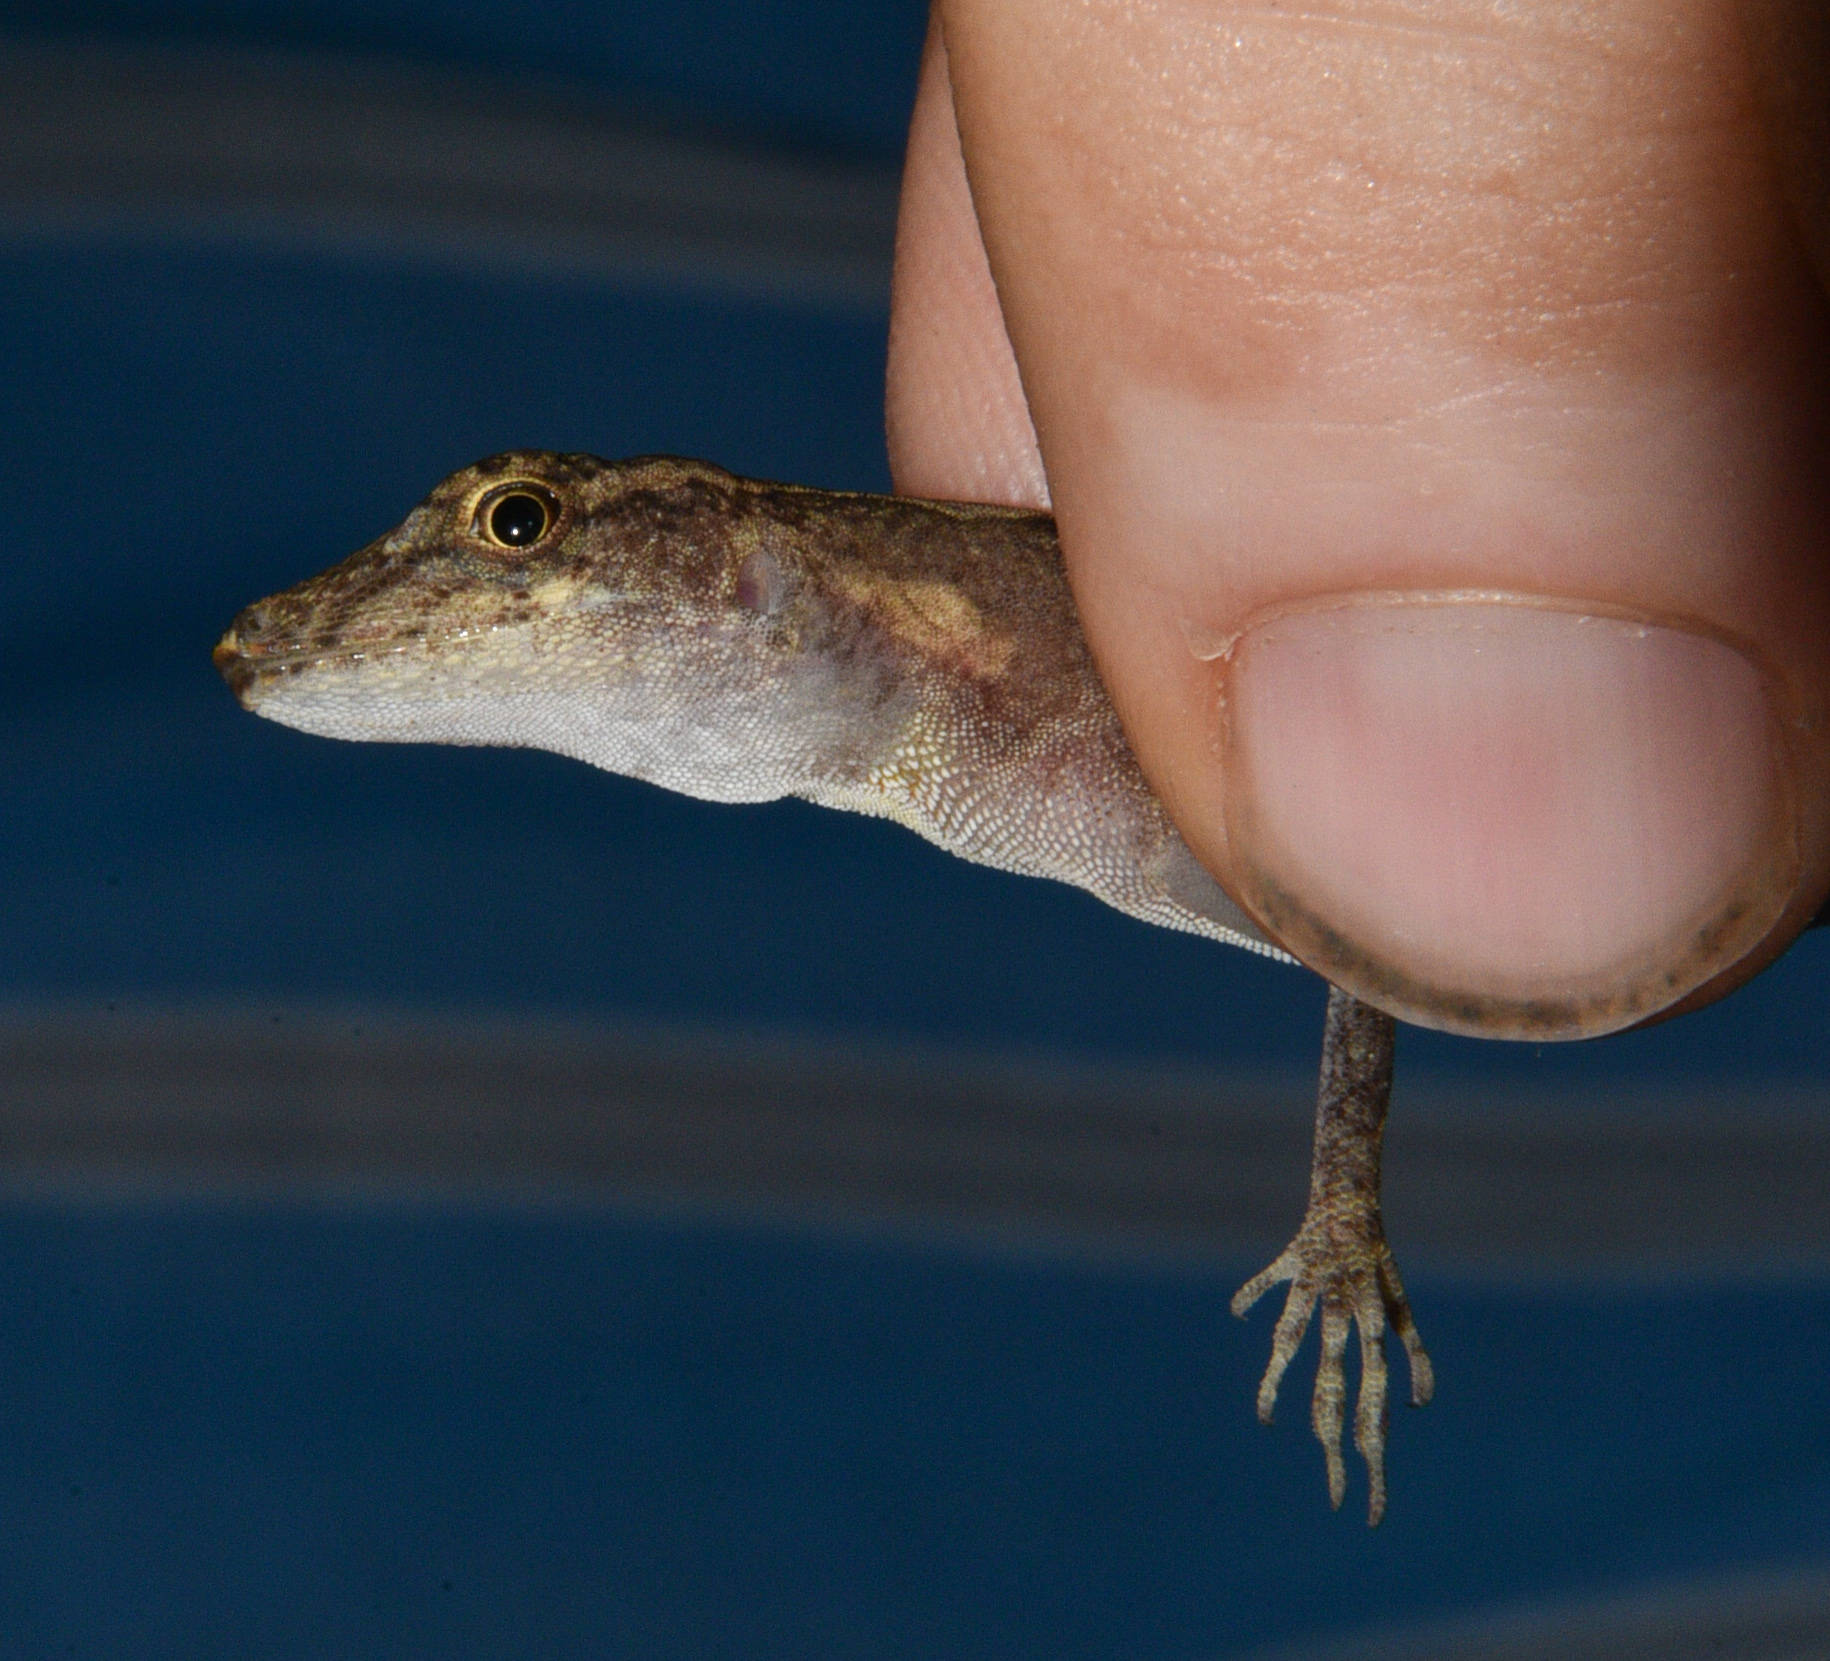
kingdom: Animalia
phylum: Chordata
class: Squamata
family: Dactyloidae
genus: Anolis
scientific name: Anolis osa
